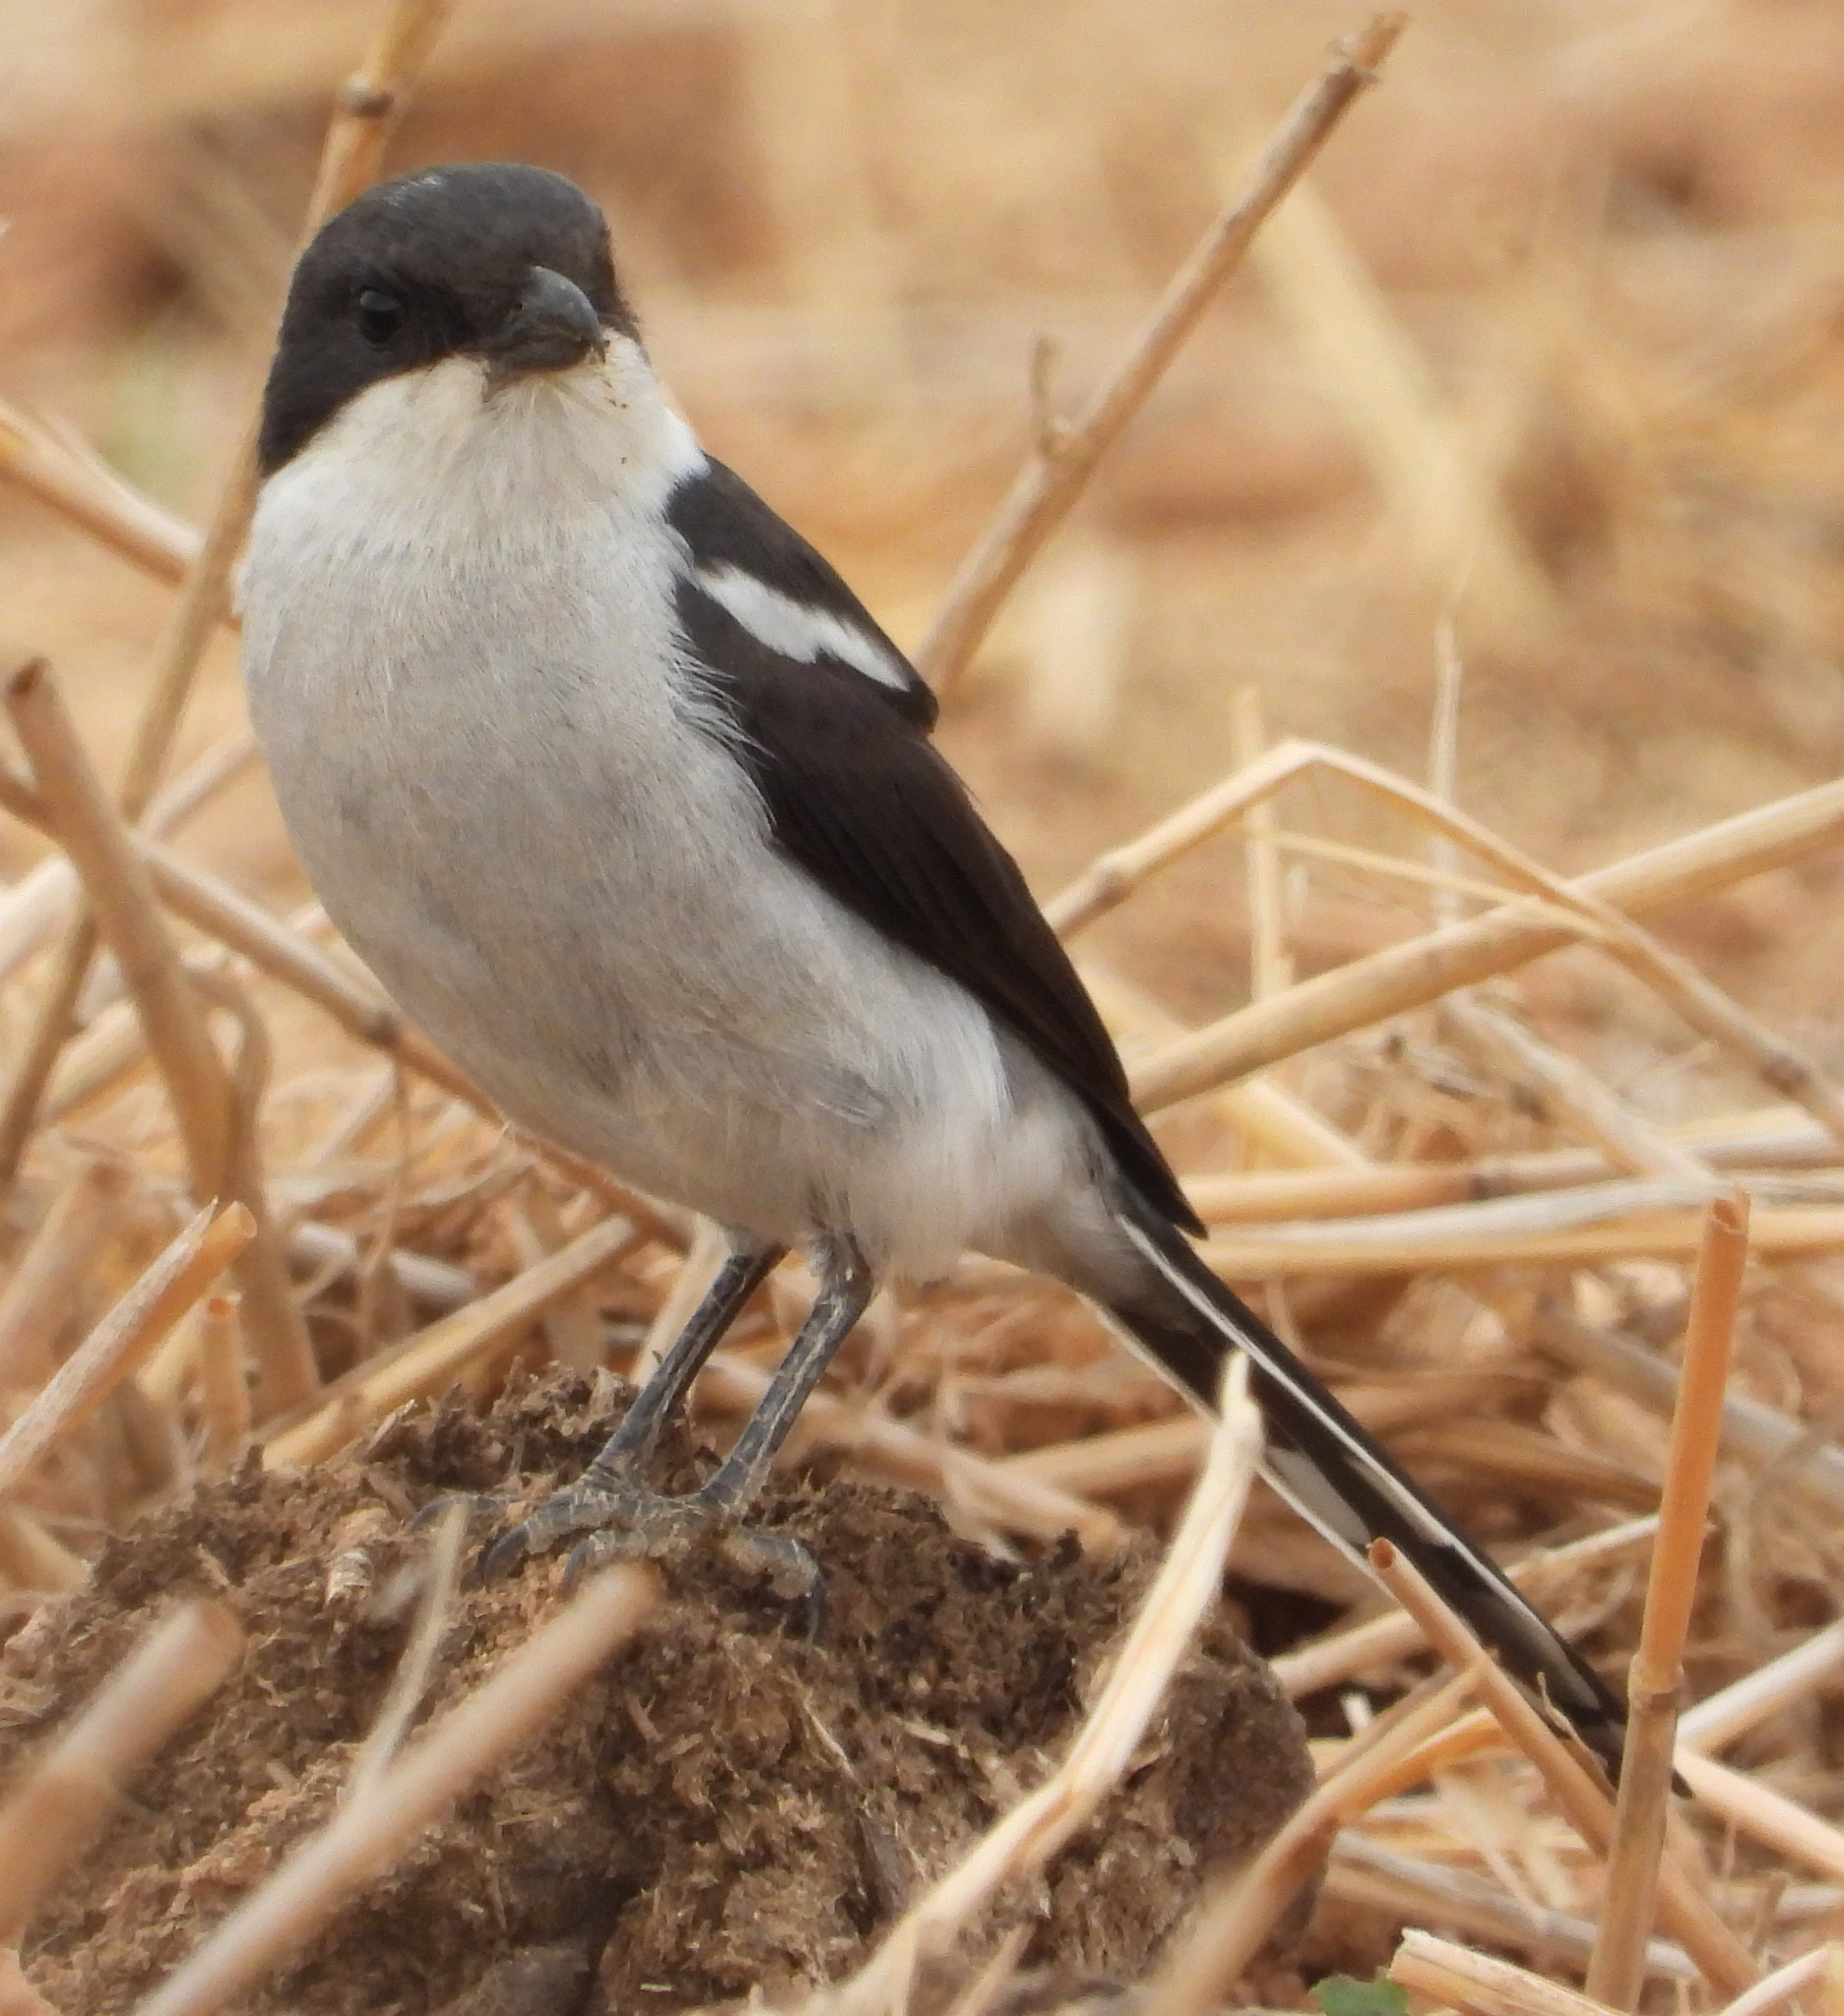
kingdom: Animalia
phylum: Chordata
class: Aves
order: Passeriformes
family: Laniidae
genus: Lanius
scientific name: Lanius collaris
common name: Southern fiscal
